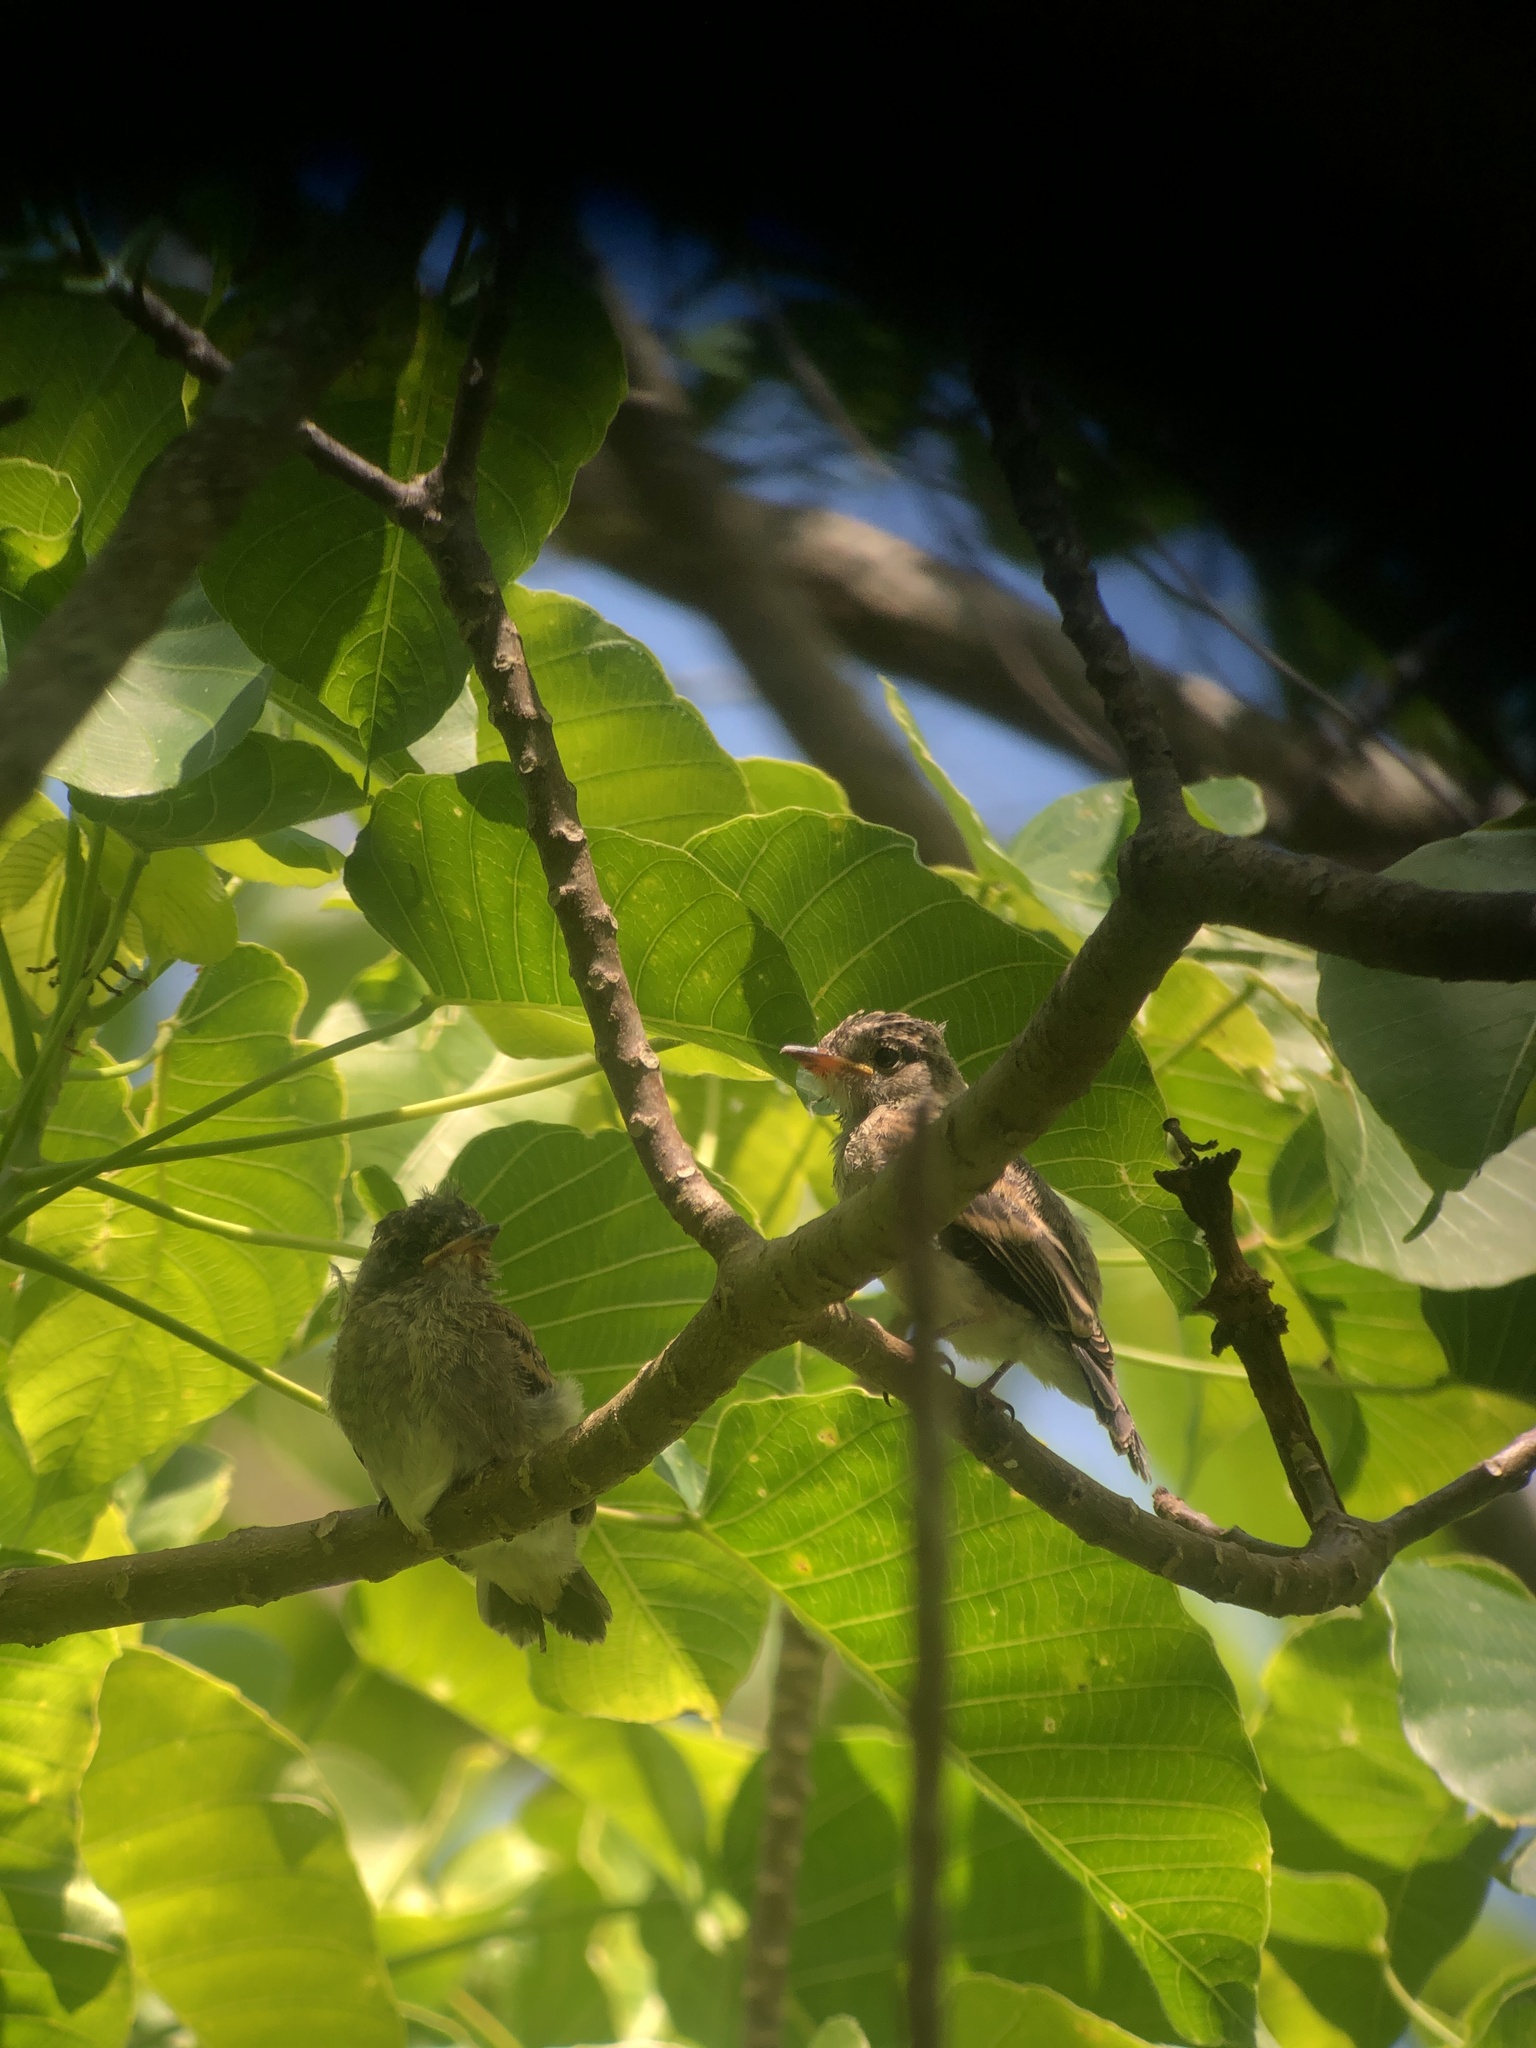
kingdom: Animalia
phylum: Chordata
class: Aves
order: Passeriformes
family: Tyrannidae
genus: Contopus
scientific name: Contopus cinereus
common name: Tropical pewee
